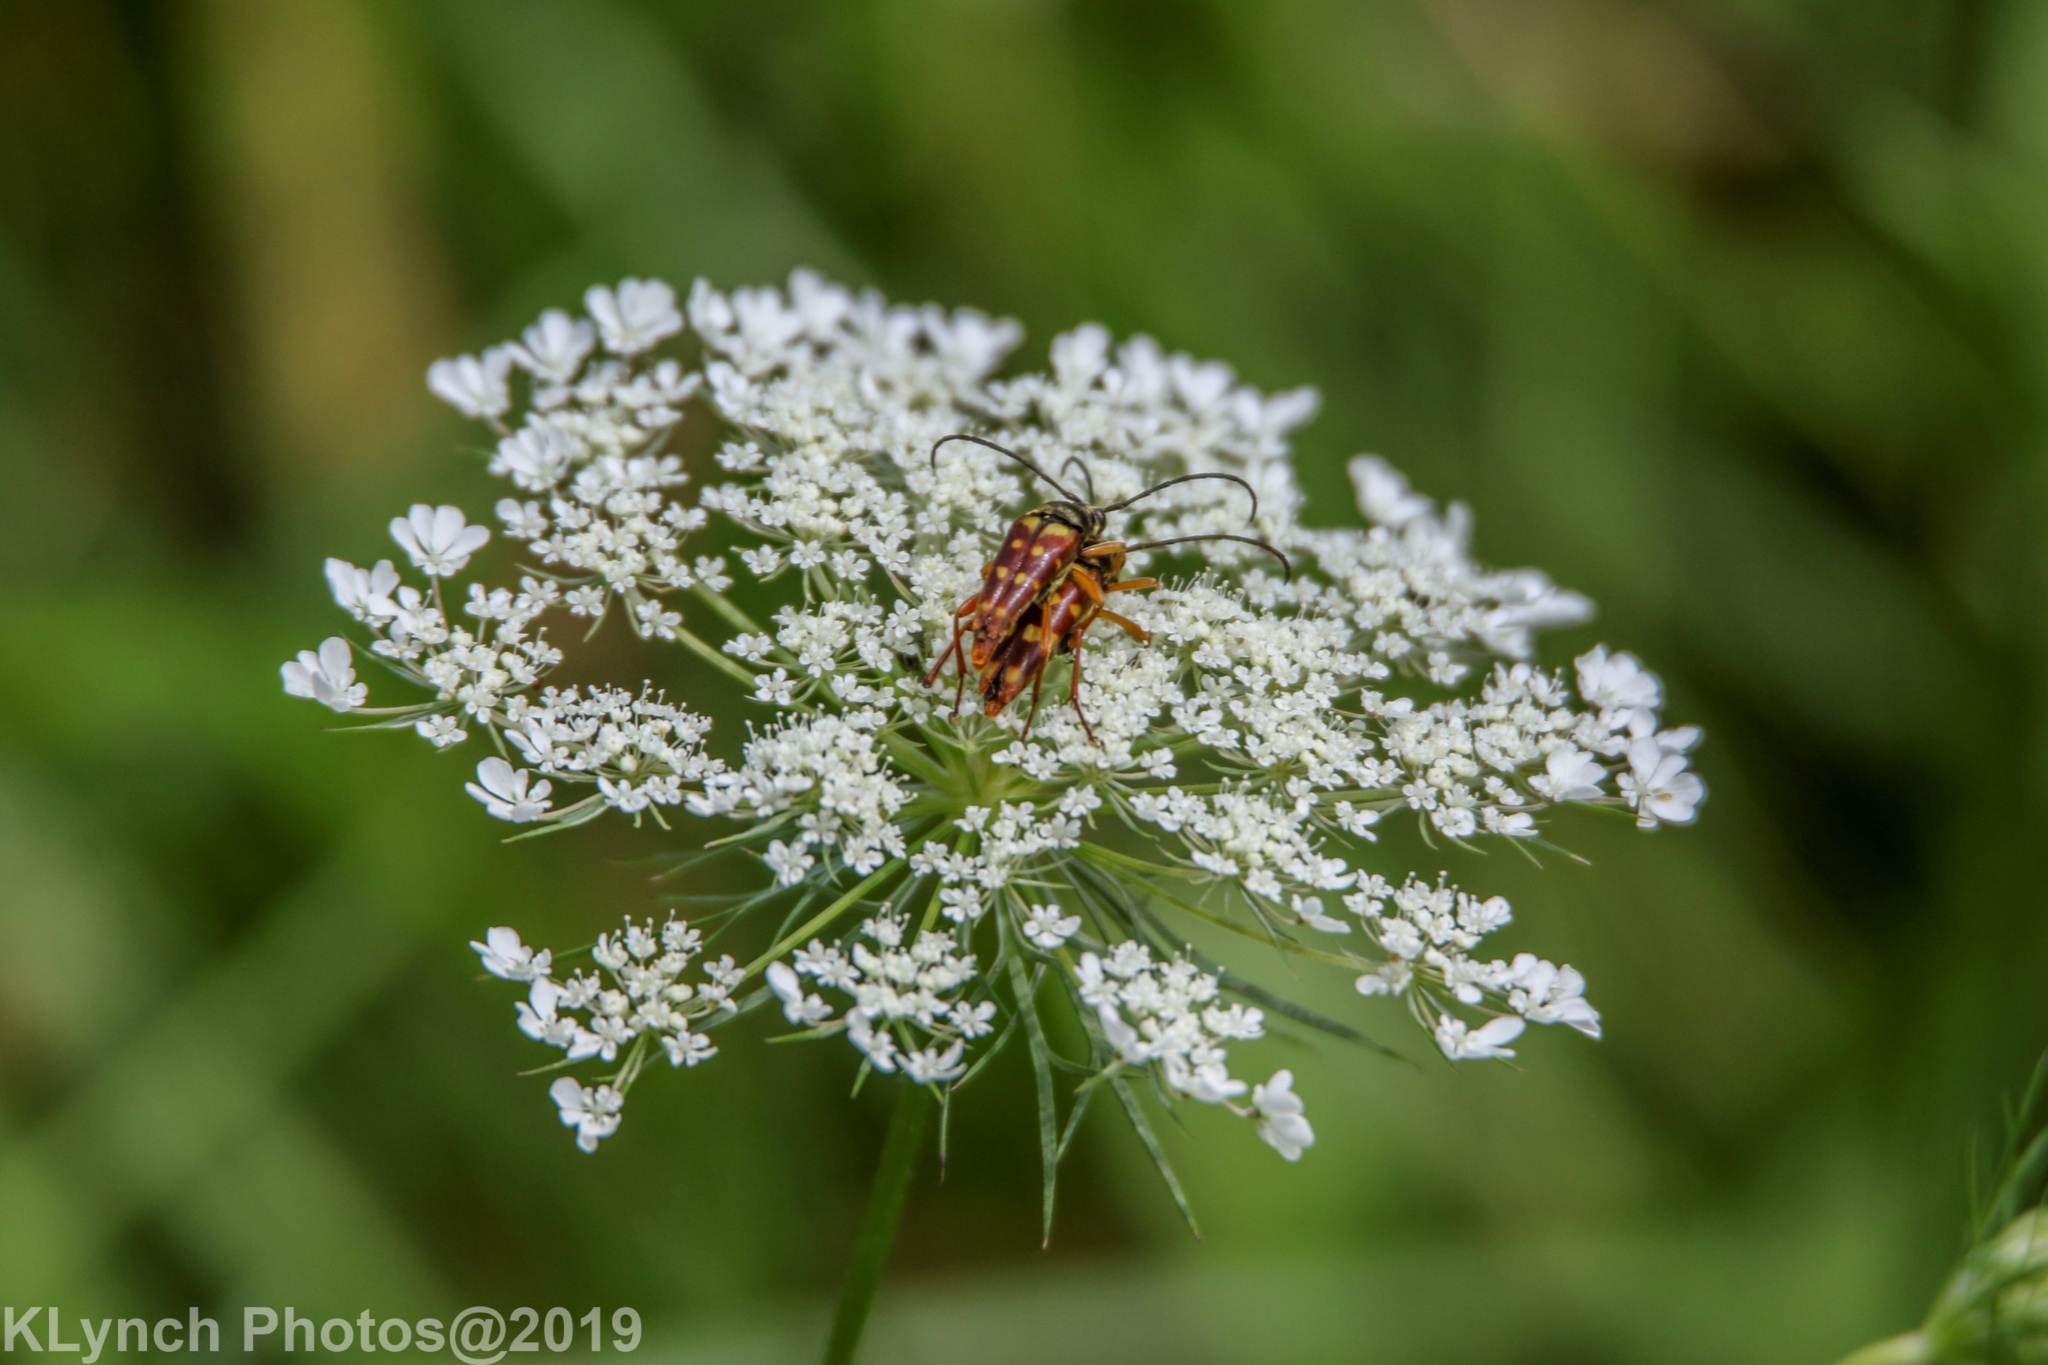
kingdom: Animalia
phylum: Arthropoda
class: Insecta
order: Coleoptera
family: Cerambycidae
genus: Typocerus
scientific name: Typocerus velutinus
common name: Banded longhorn beetle
